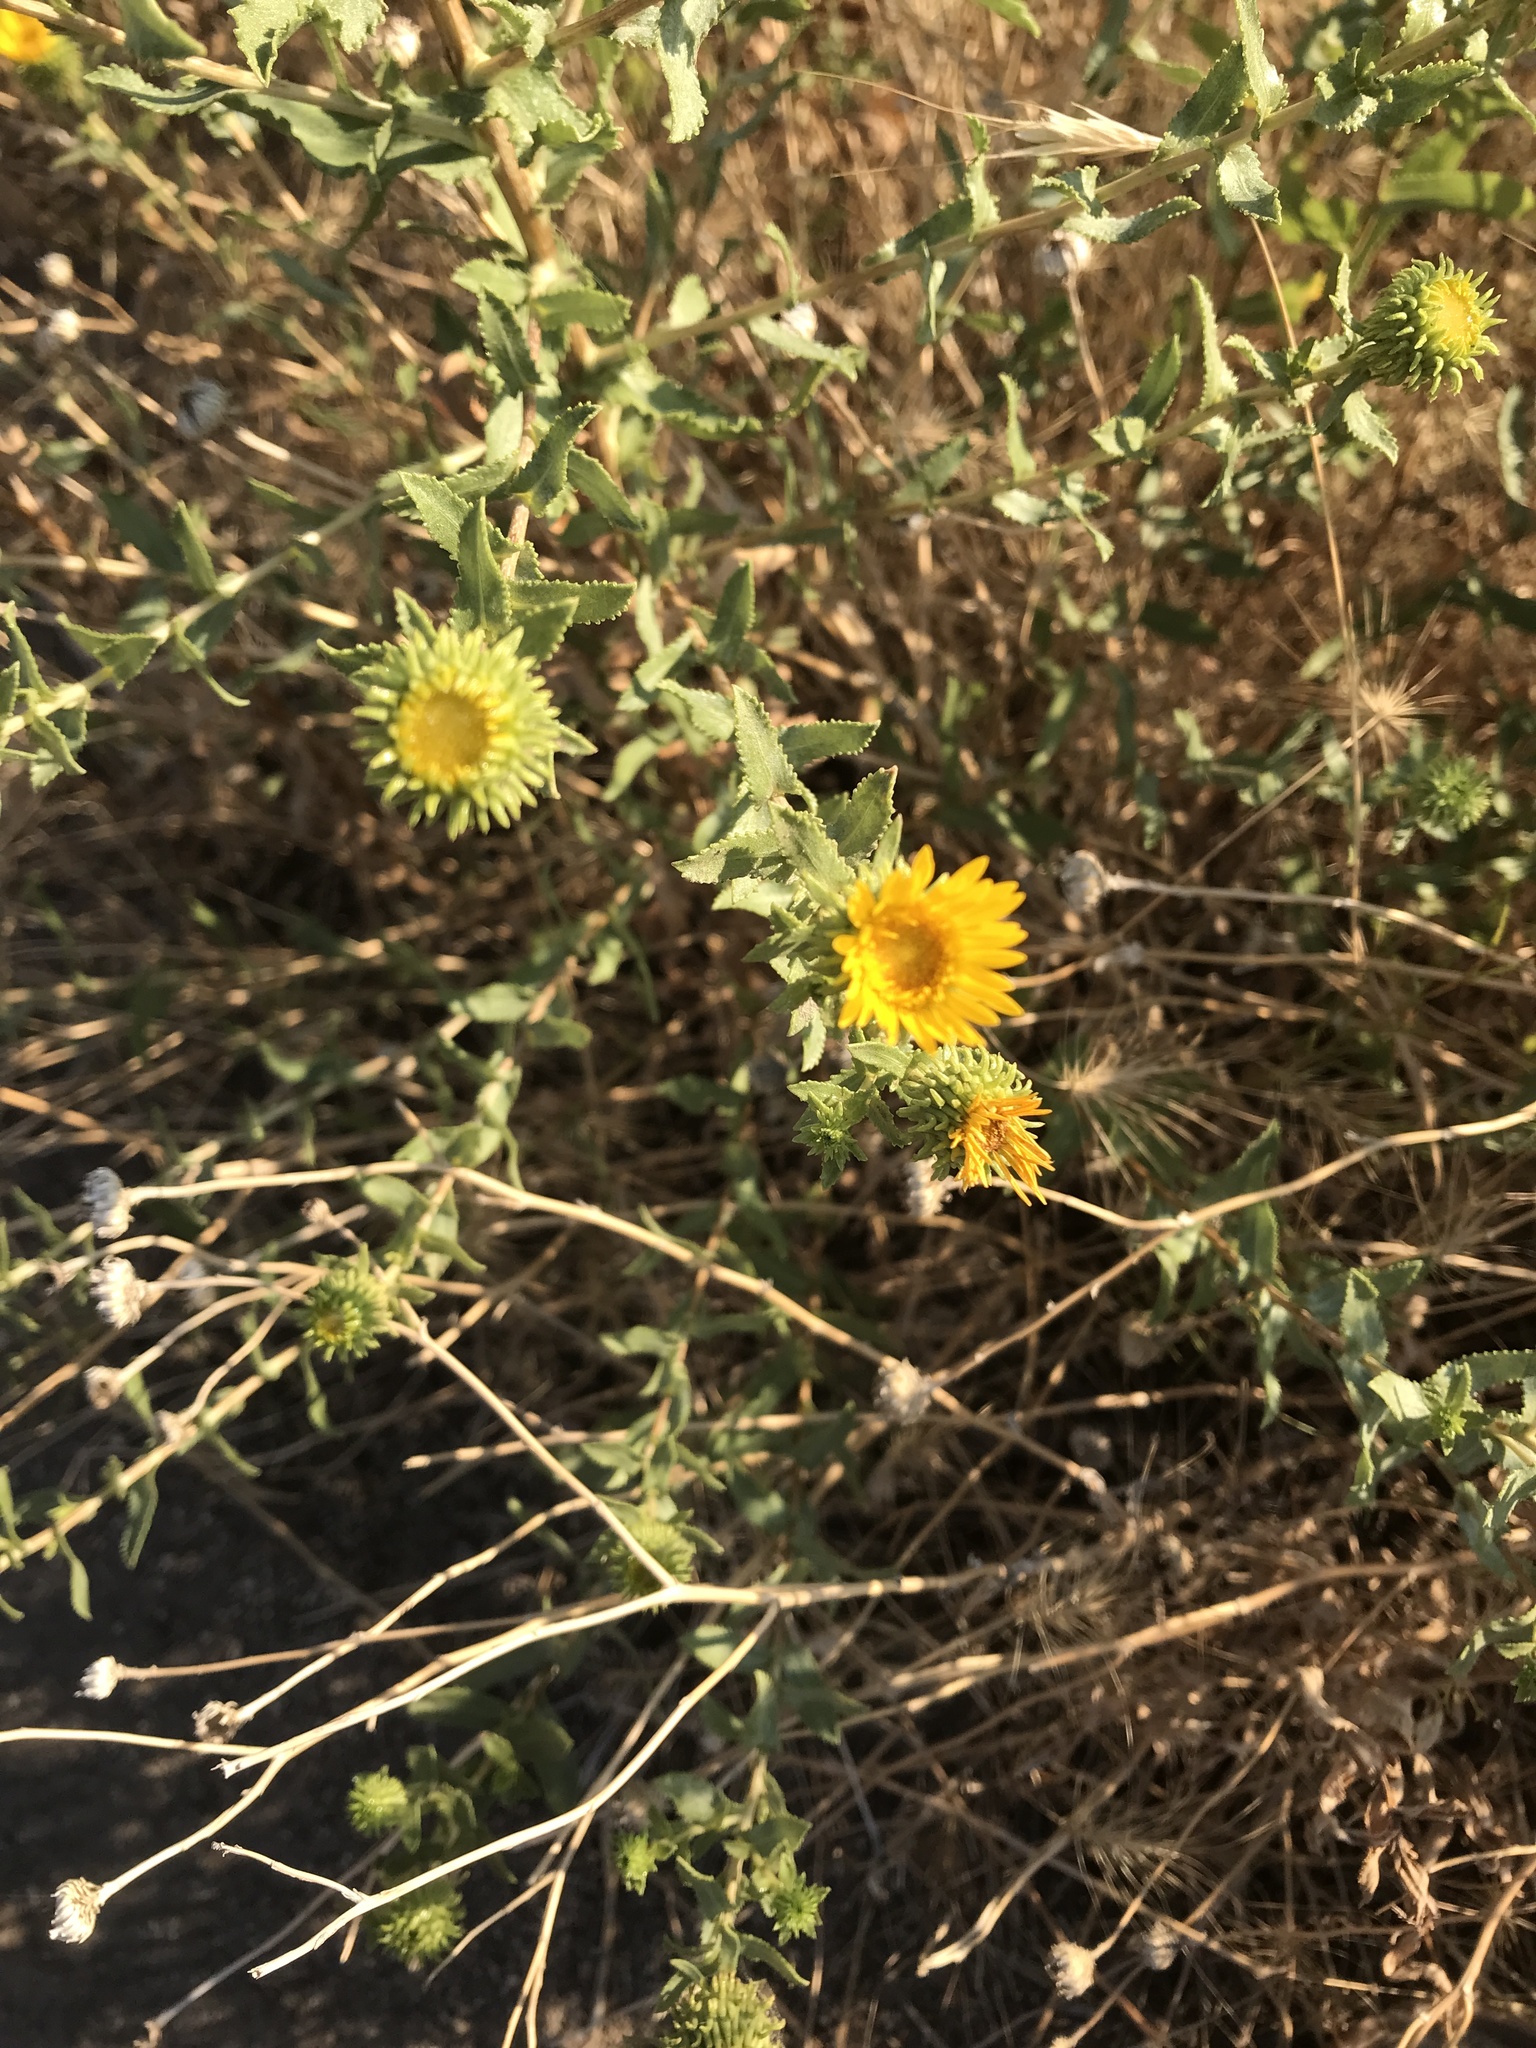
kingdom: Plantae
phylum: Tracheophyta
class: Magnoliopsida
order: Asterales
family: Asteraceae
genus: Grindelia
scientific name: Grindelia squarrosa
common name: Curly-cup gumweed
